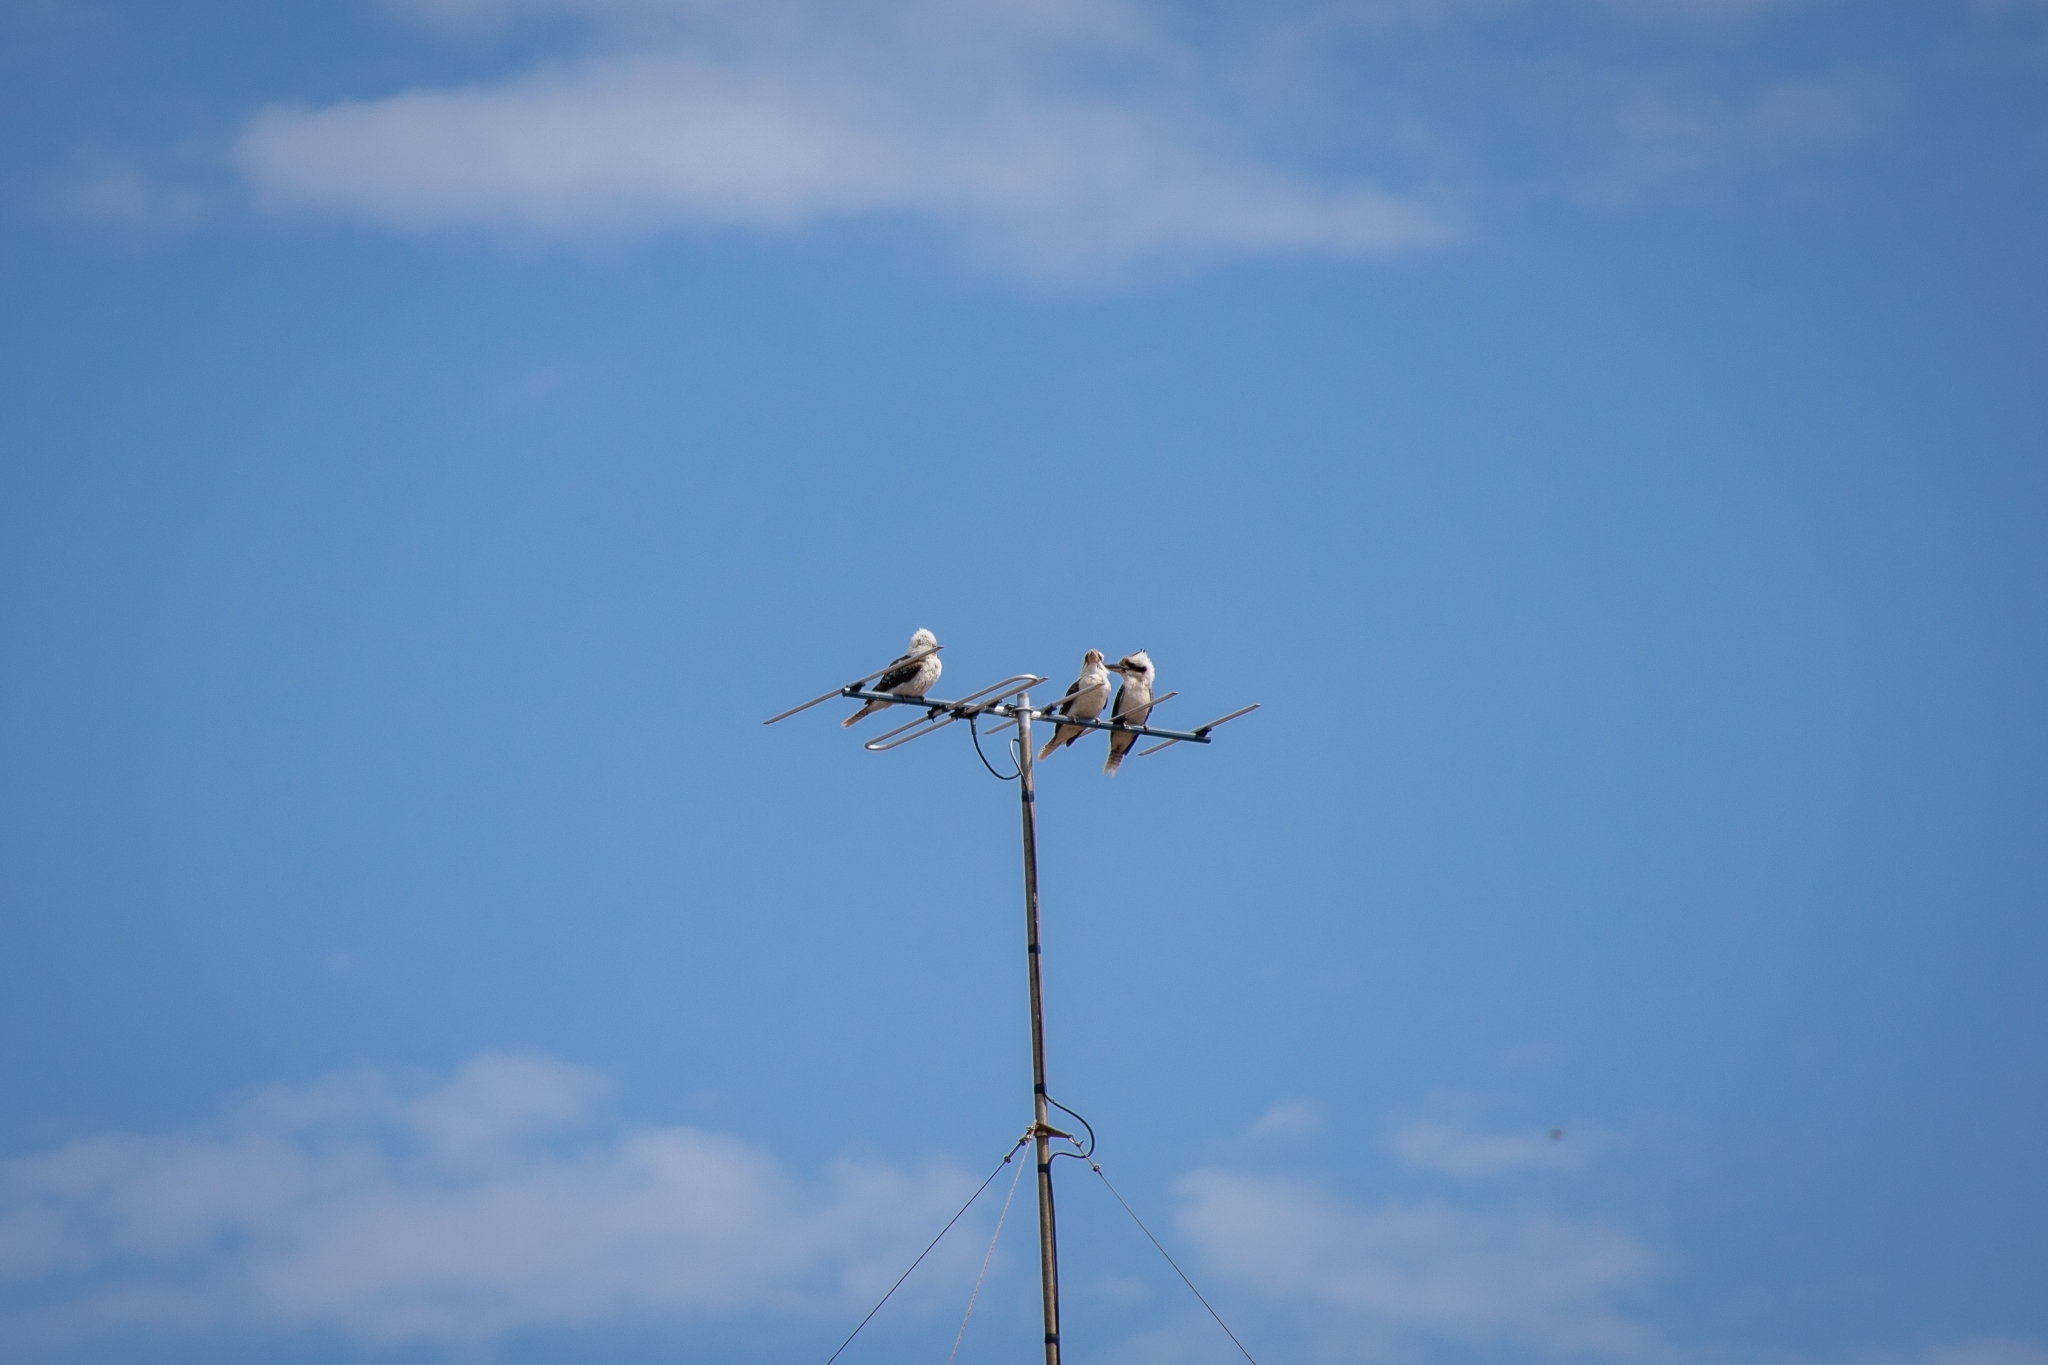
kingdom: Animalia
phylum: Chordata
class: Aves
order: Coraciiformes
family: Alcedinidae
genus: Dacelo
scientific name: Dacelo novaeguineae
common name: Laughing kookaburra
